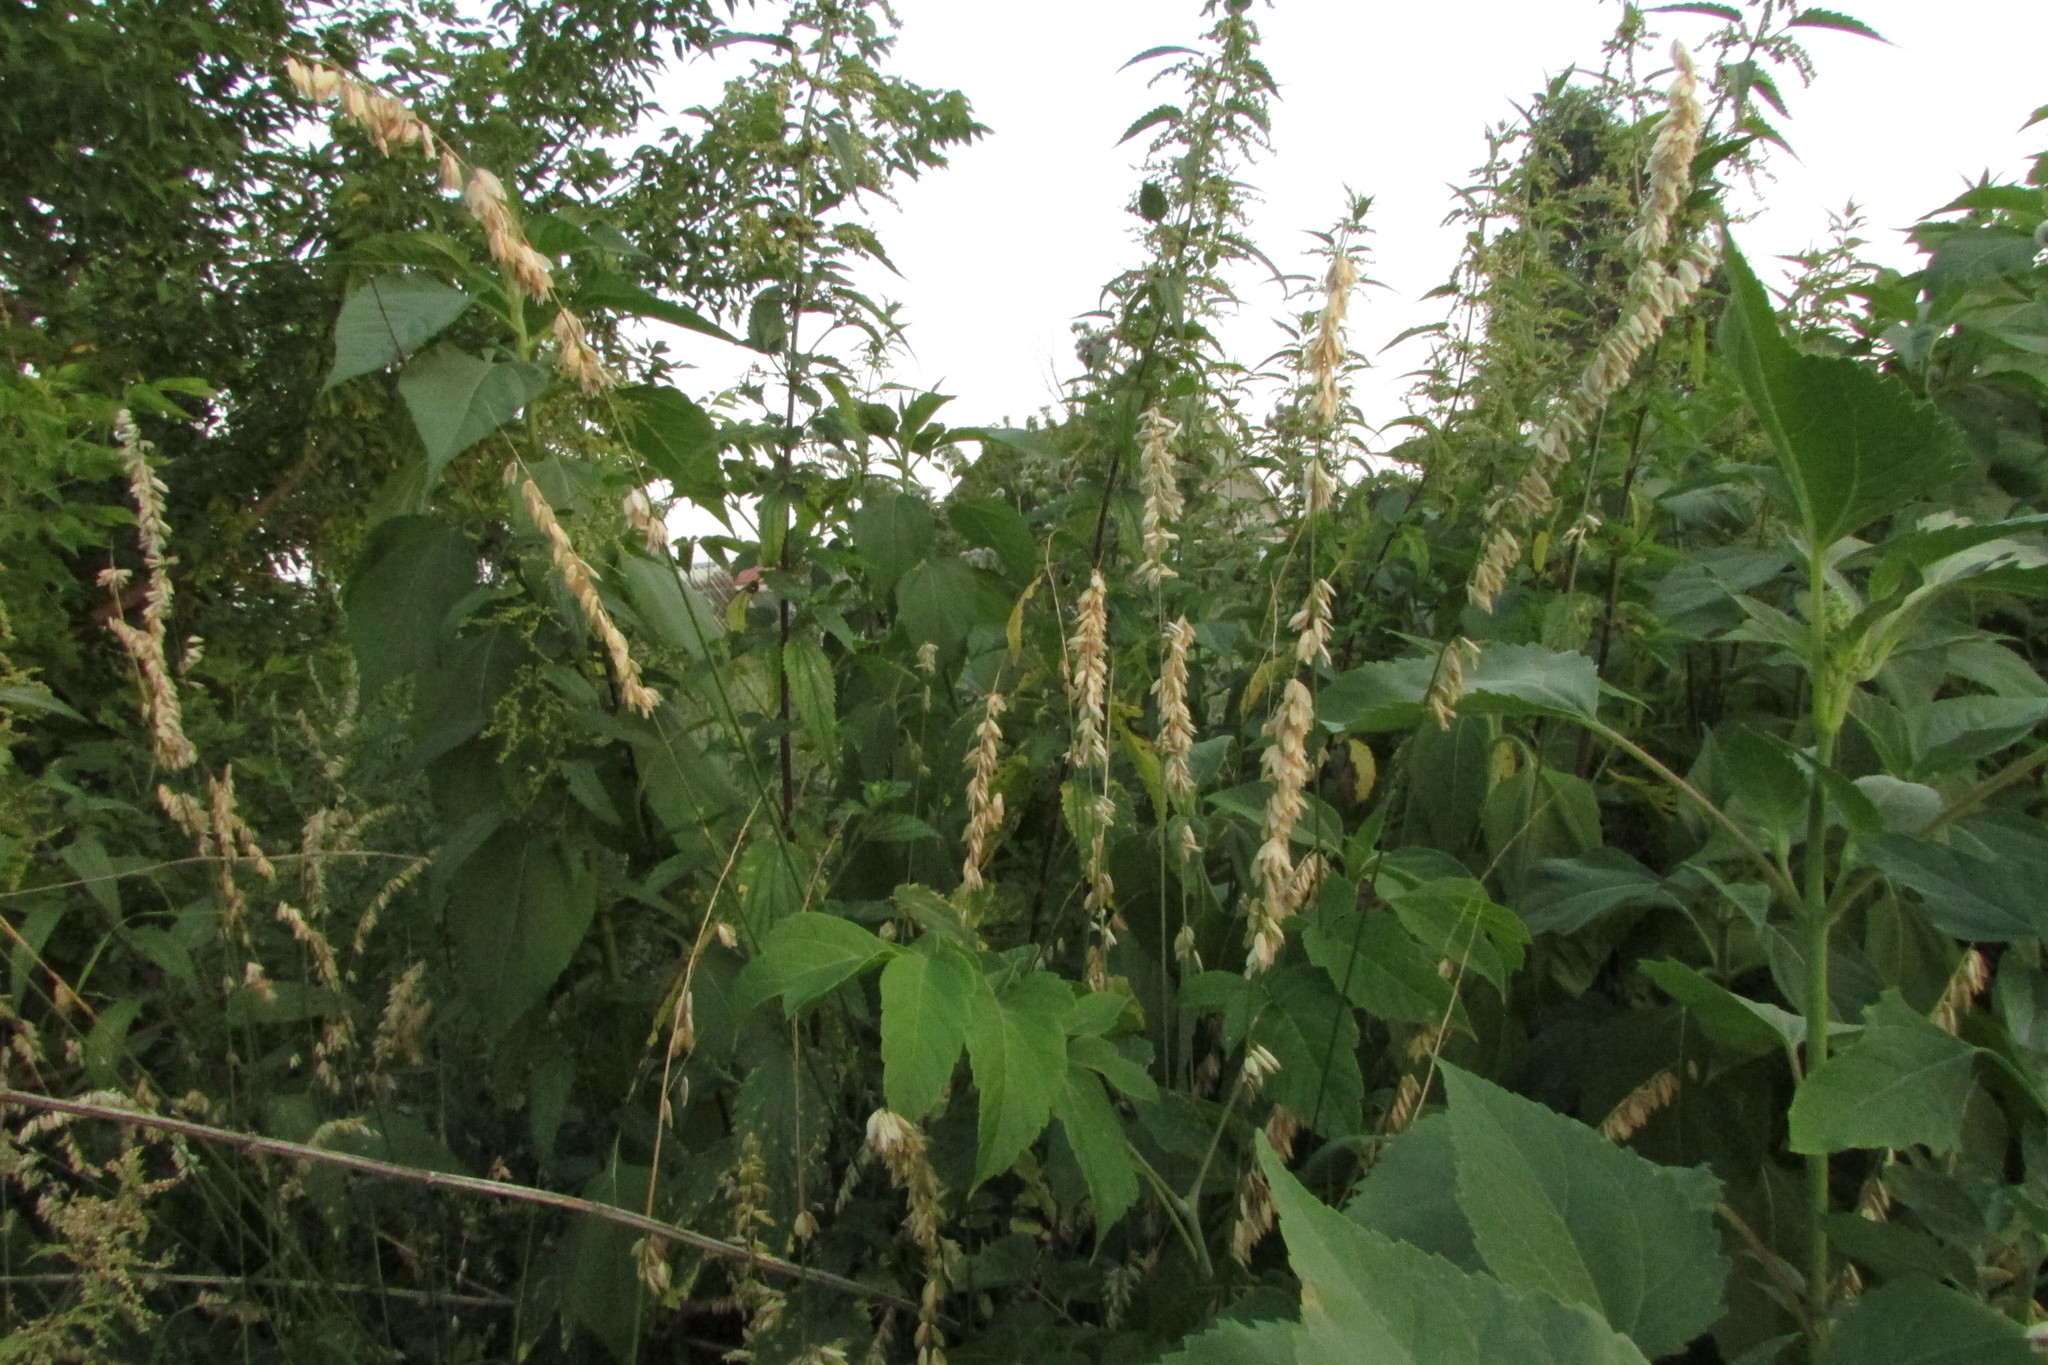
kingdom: Plantae
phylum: Tracheophyta
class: Liliopsida
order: Poales
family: Poaceae
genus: Melica
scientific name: Melica altissima
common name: Siberian melicgrass
